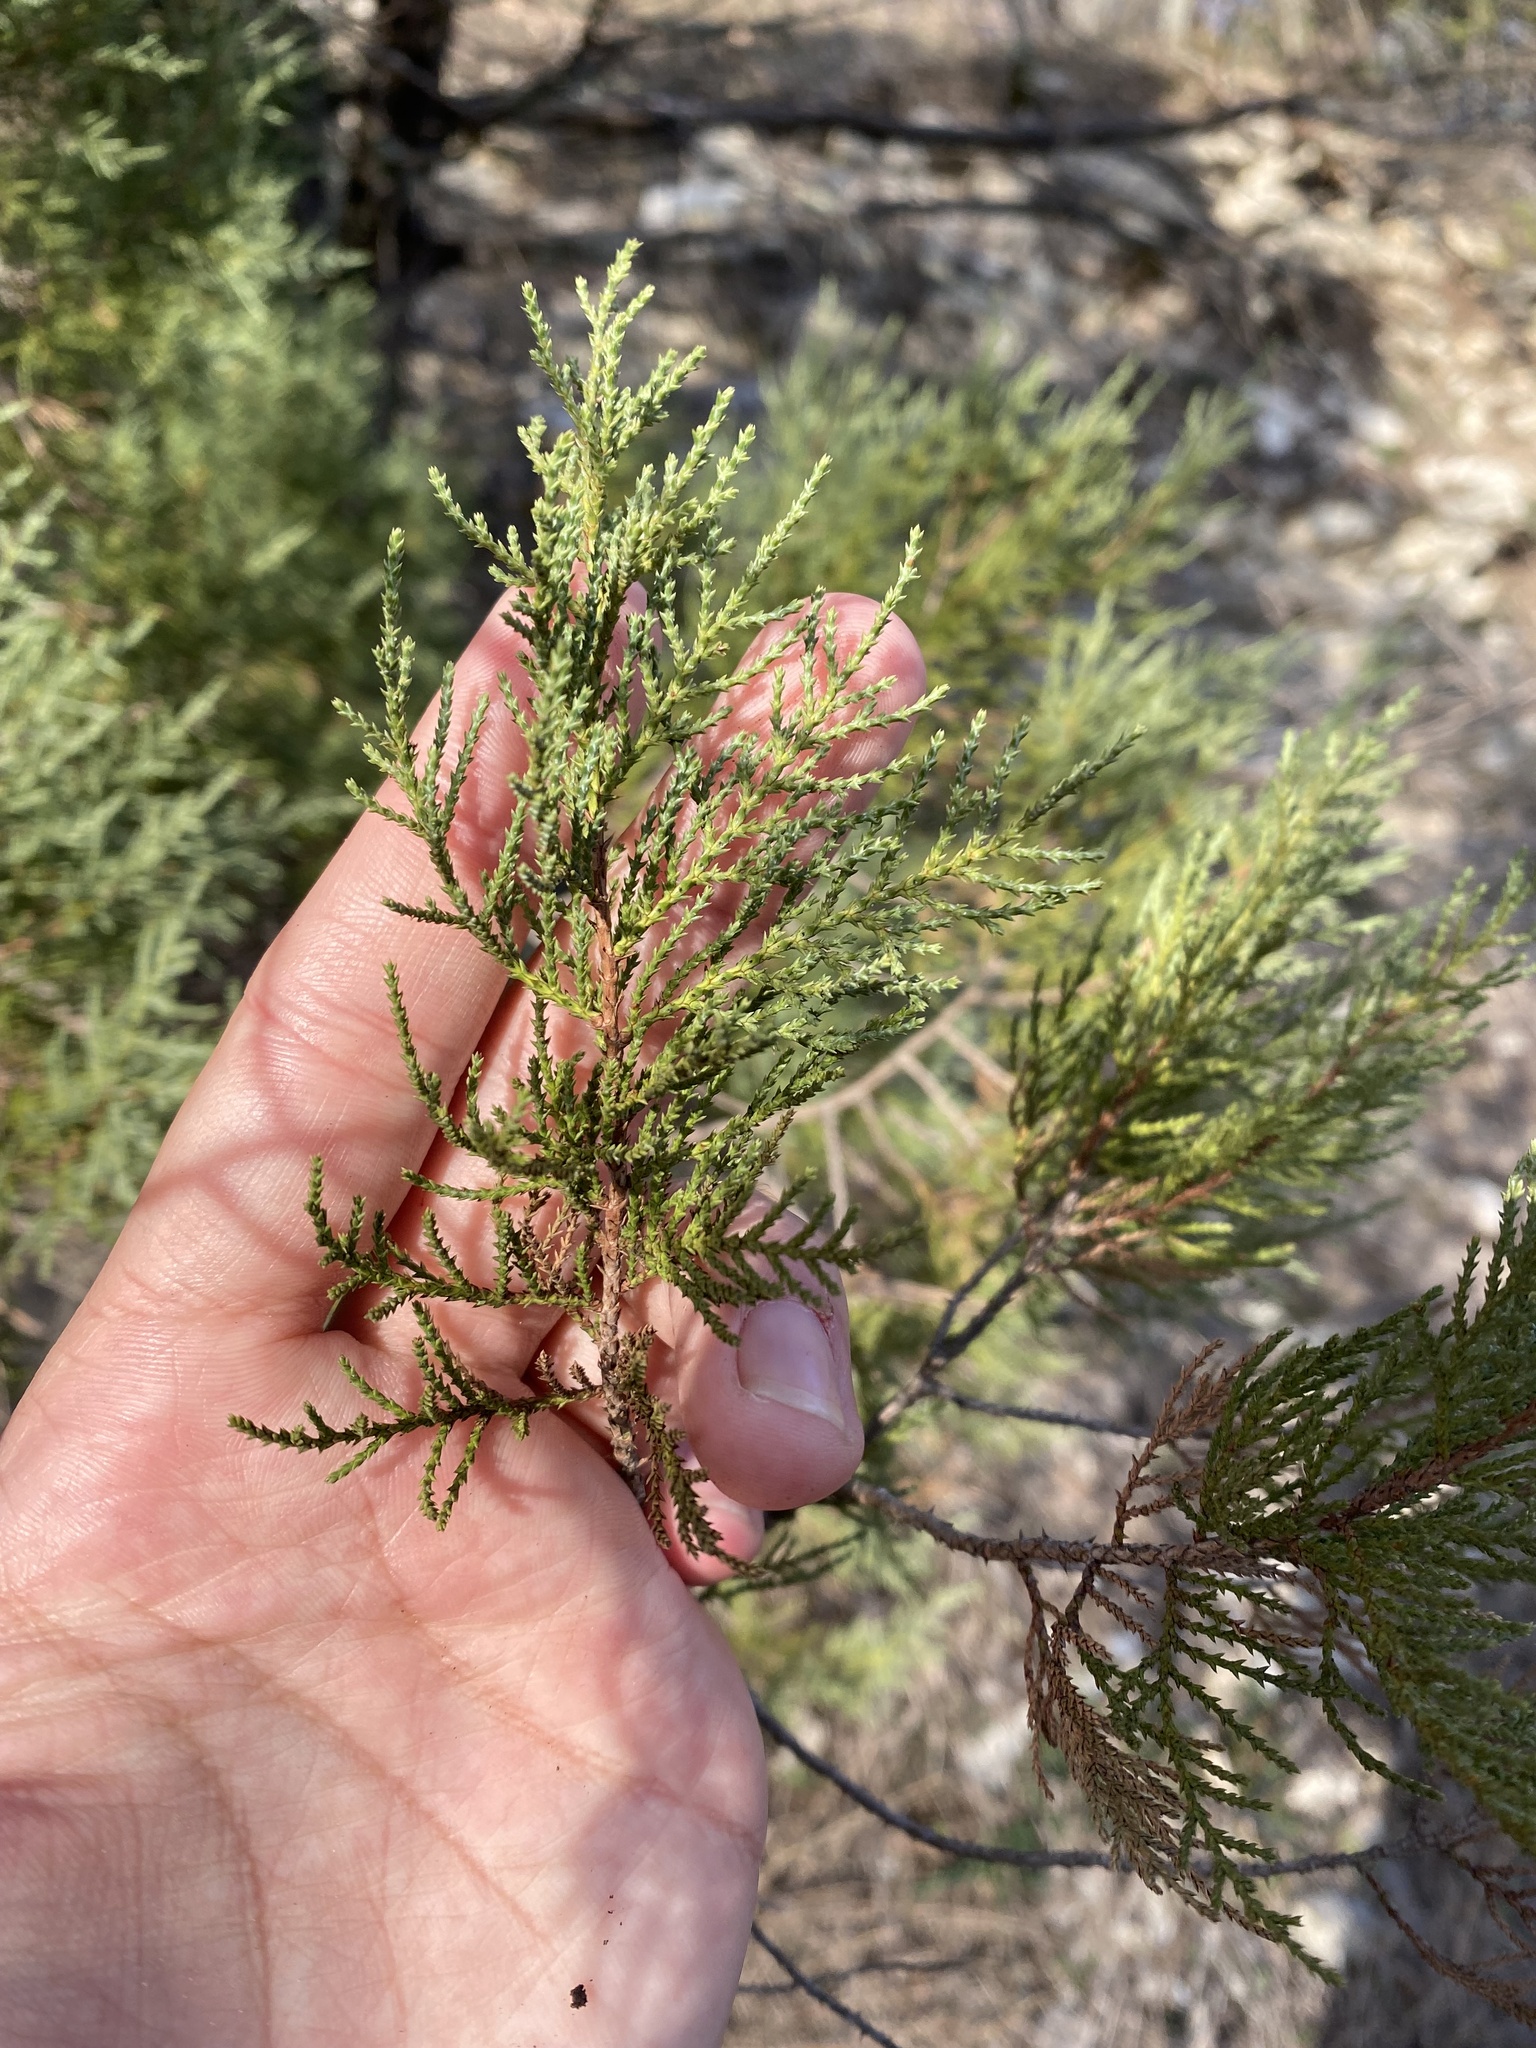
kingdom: Plantae
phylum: Tracheophyta
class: Pinopsida
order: Pinales
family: Cupressaceae
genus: Juniperus
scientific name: Juniperus excelsa
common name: Crimean juniper
